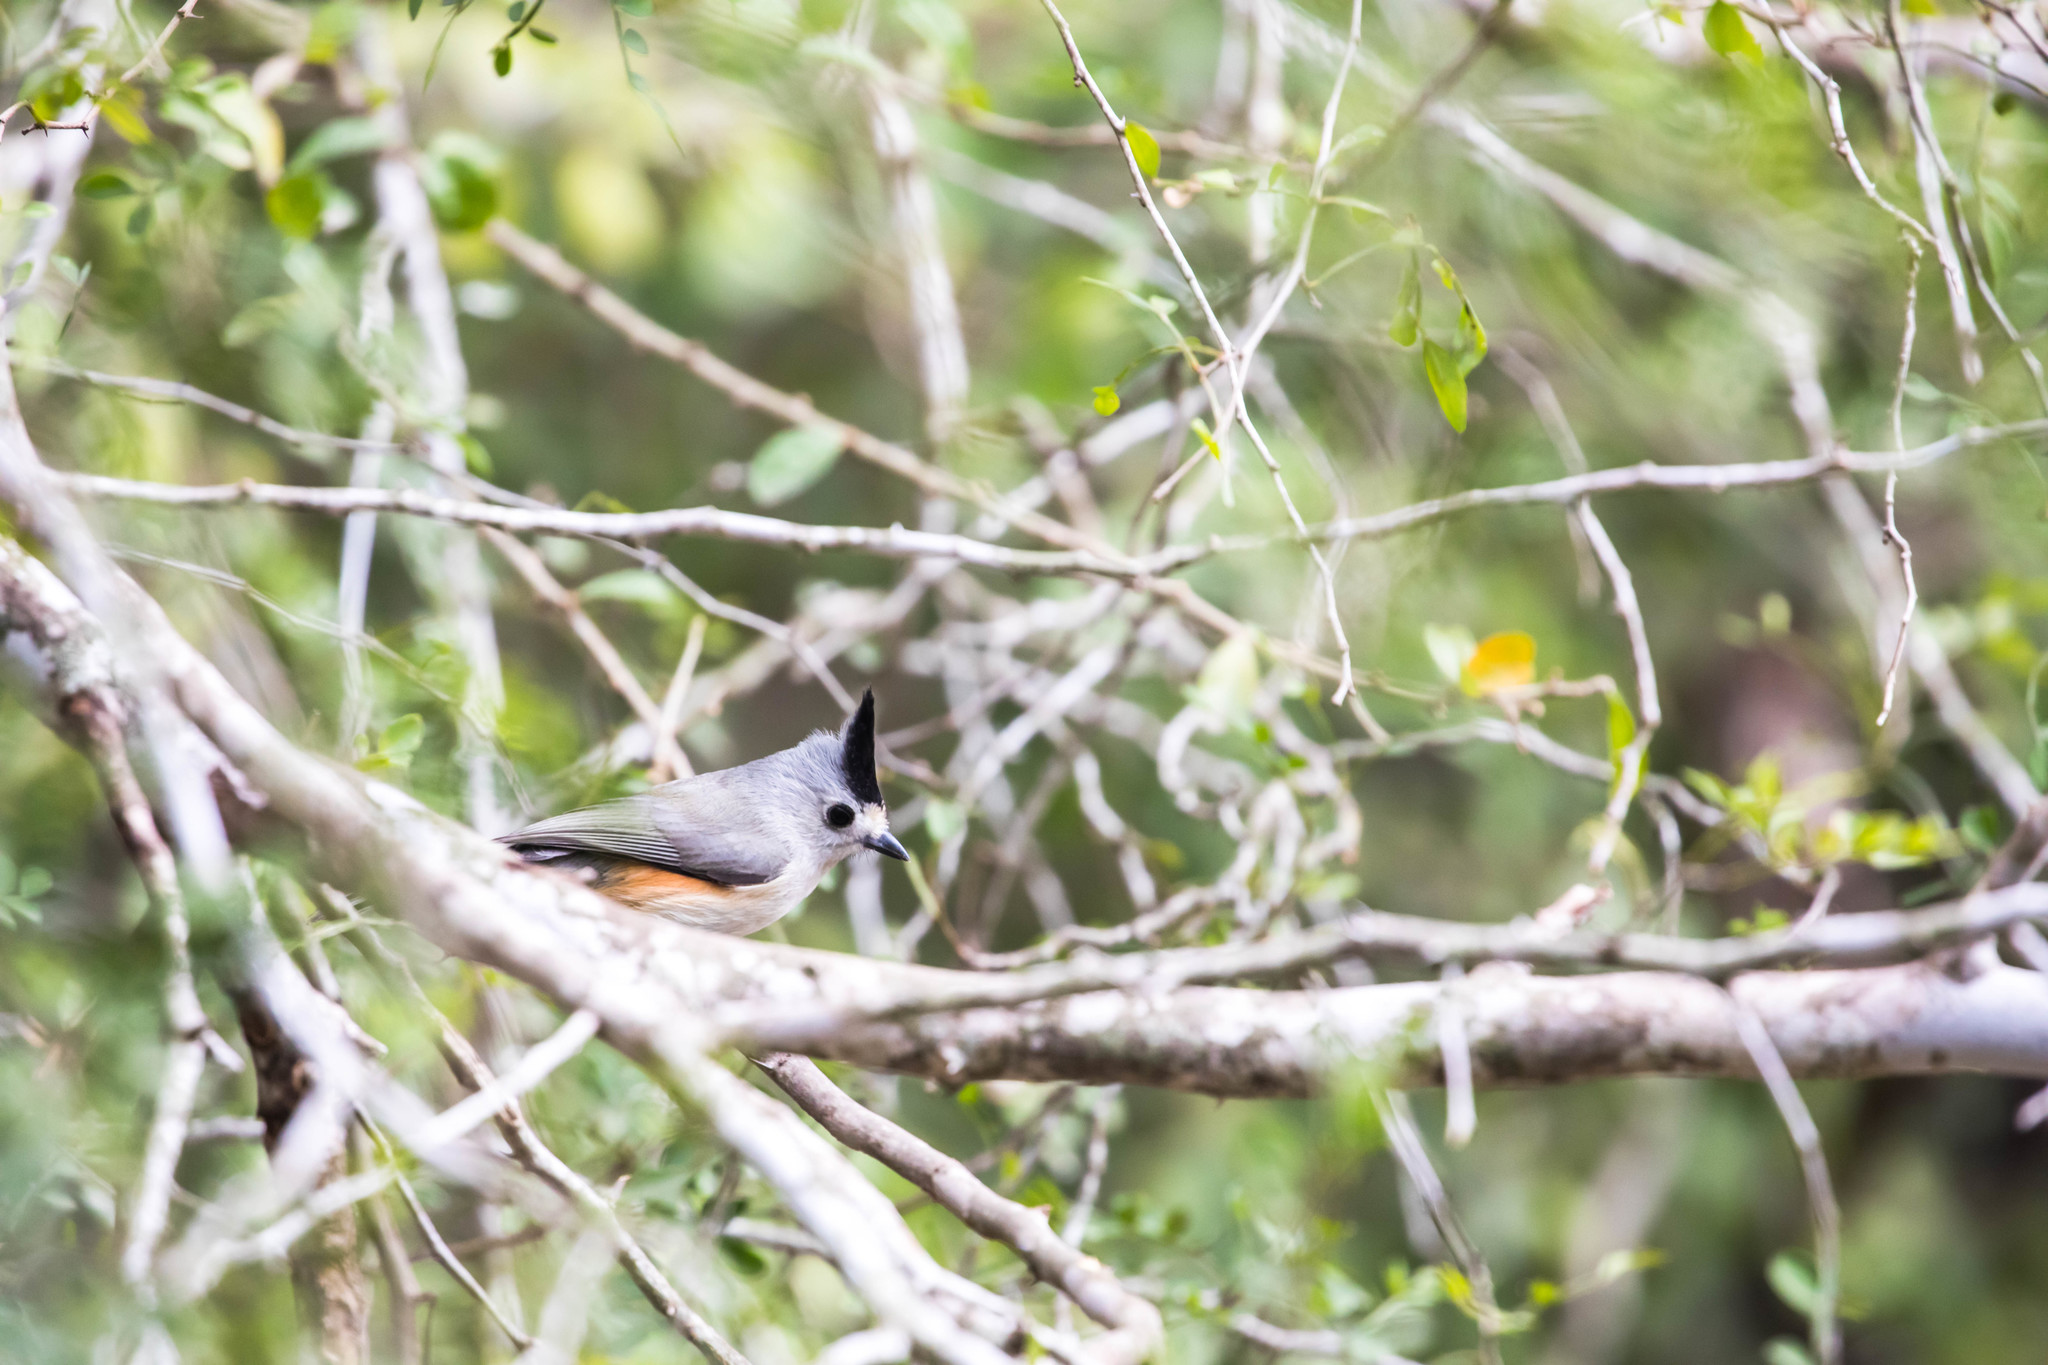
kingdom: Animalia
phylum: Chordata
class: Aves
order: Passeriformes
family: Paridae
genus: Baeolophus
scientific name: Baeolophus atricristatus
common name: Black-crested titmouse
